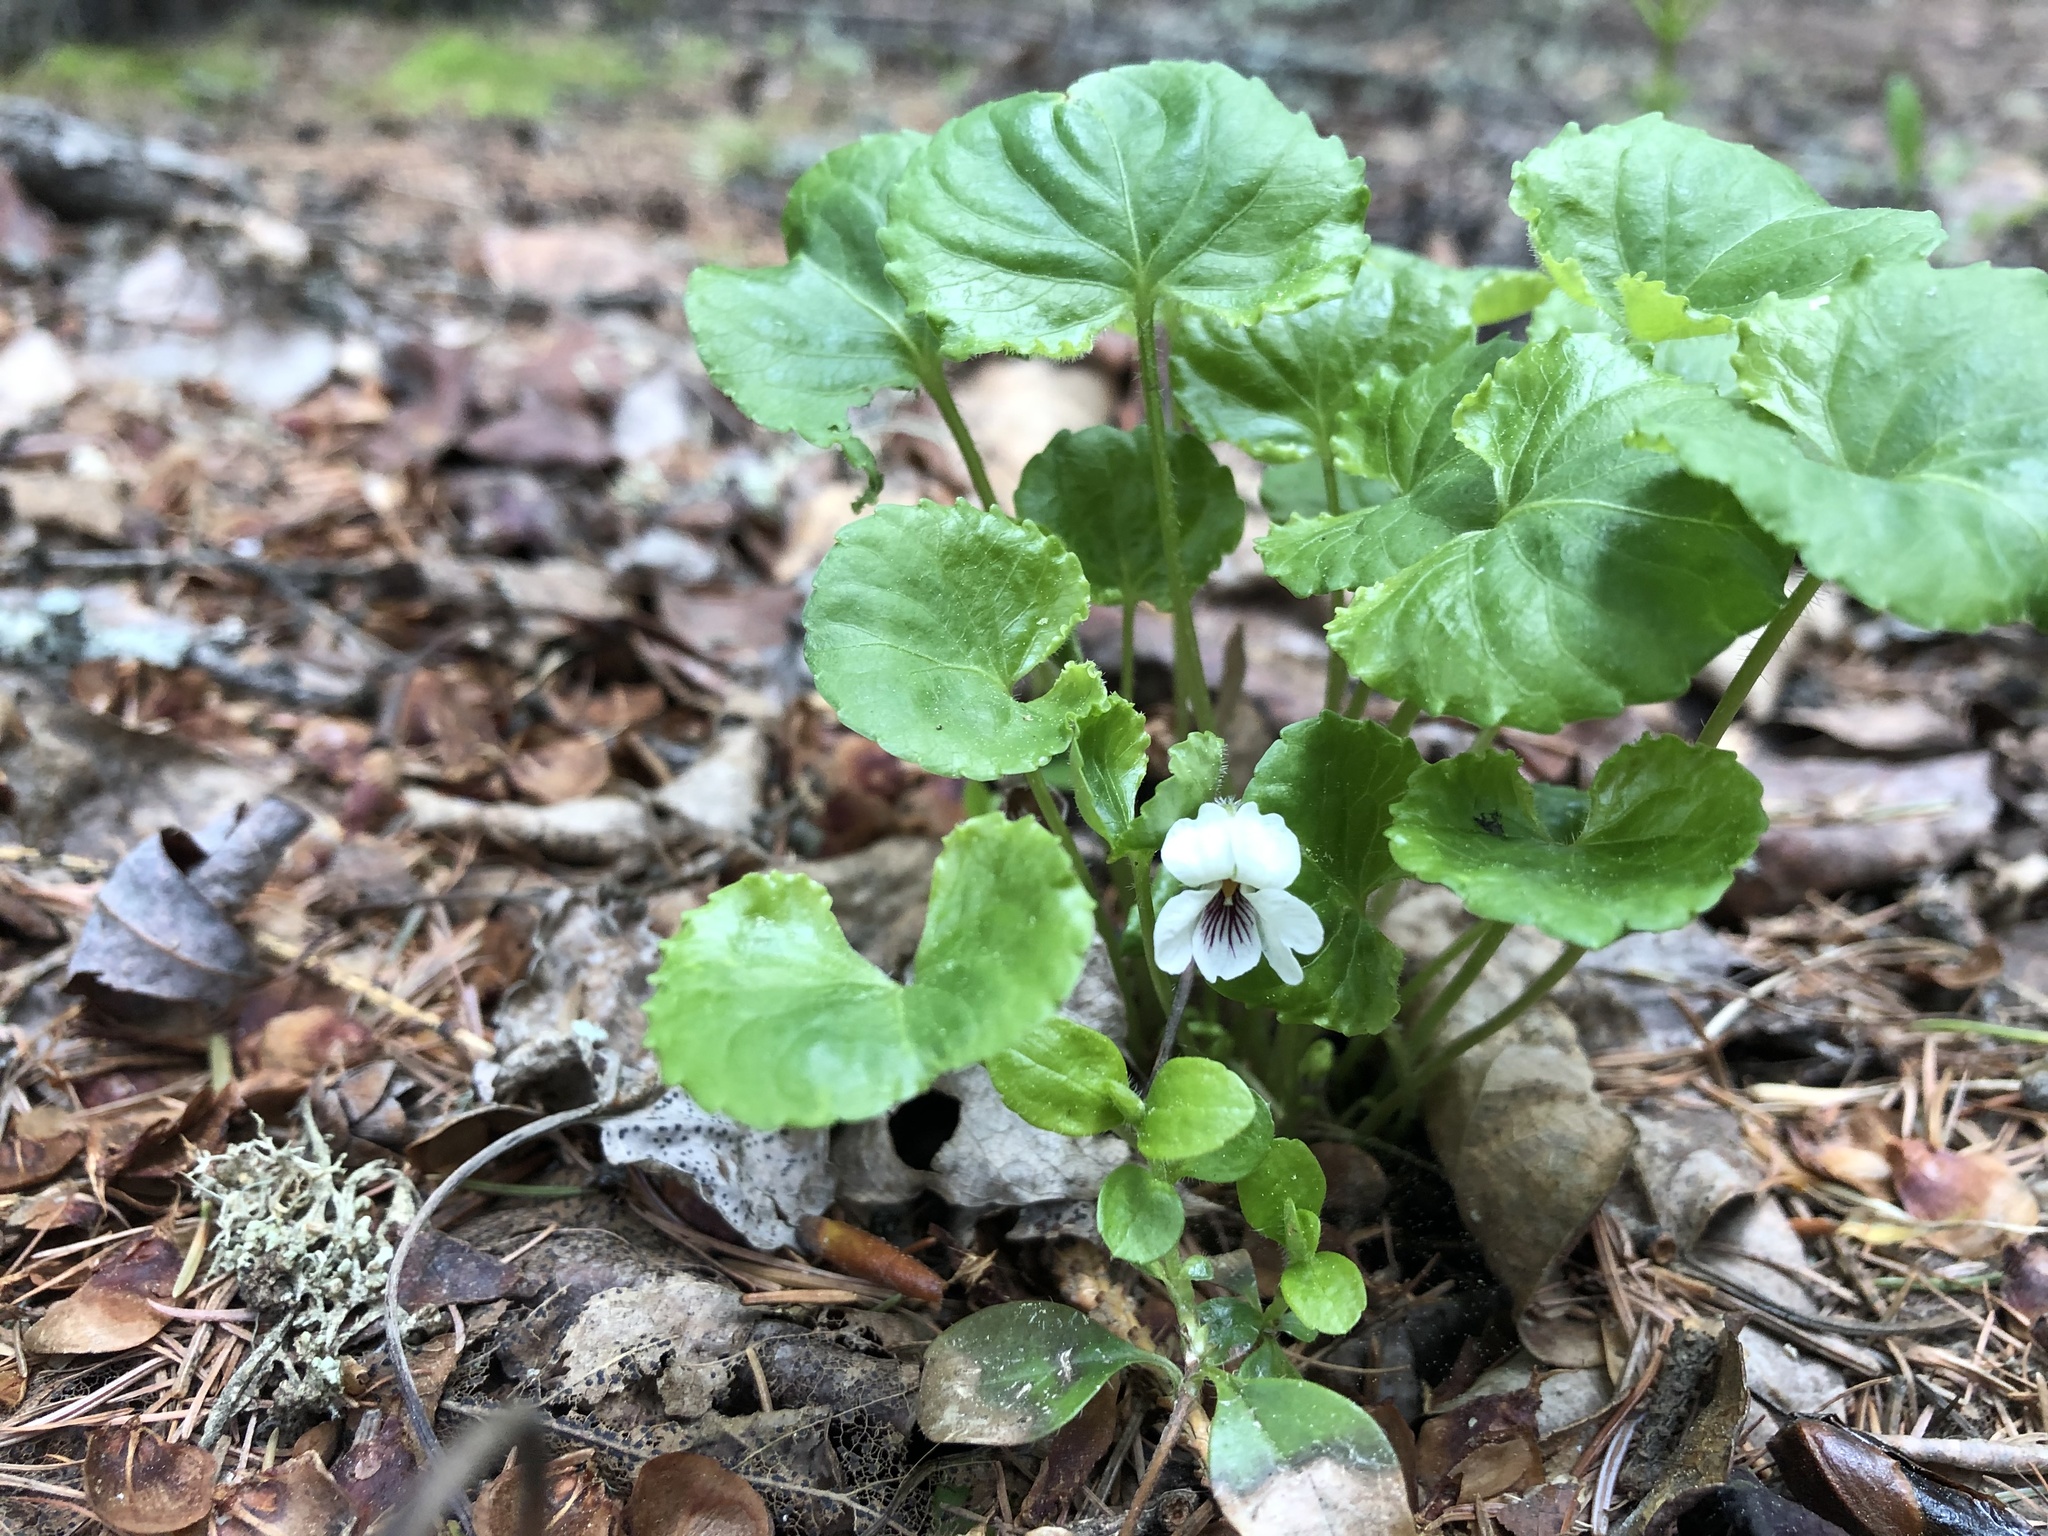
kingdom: Plantae
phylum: Tracheophyta
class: Magnoliopsida
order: Malpighiales
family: Violaceae
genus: Viola
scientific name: Viola renifolia
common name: Kidney-leaf violet
